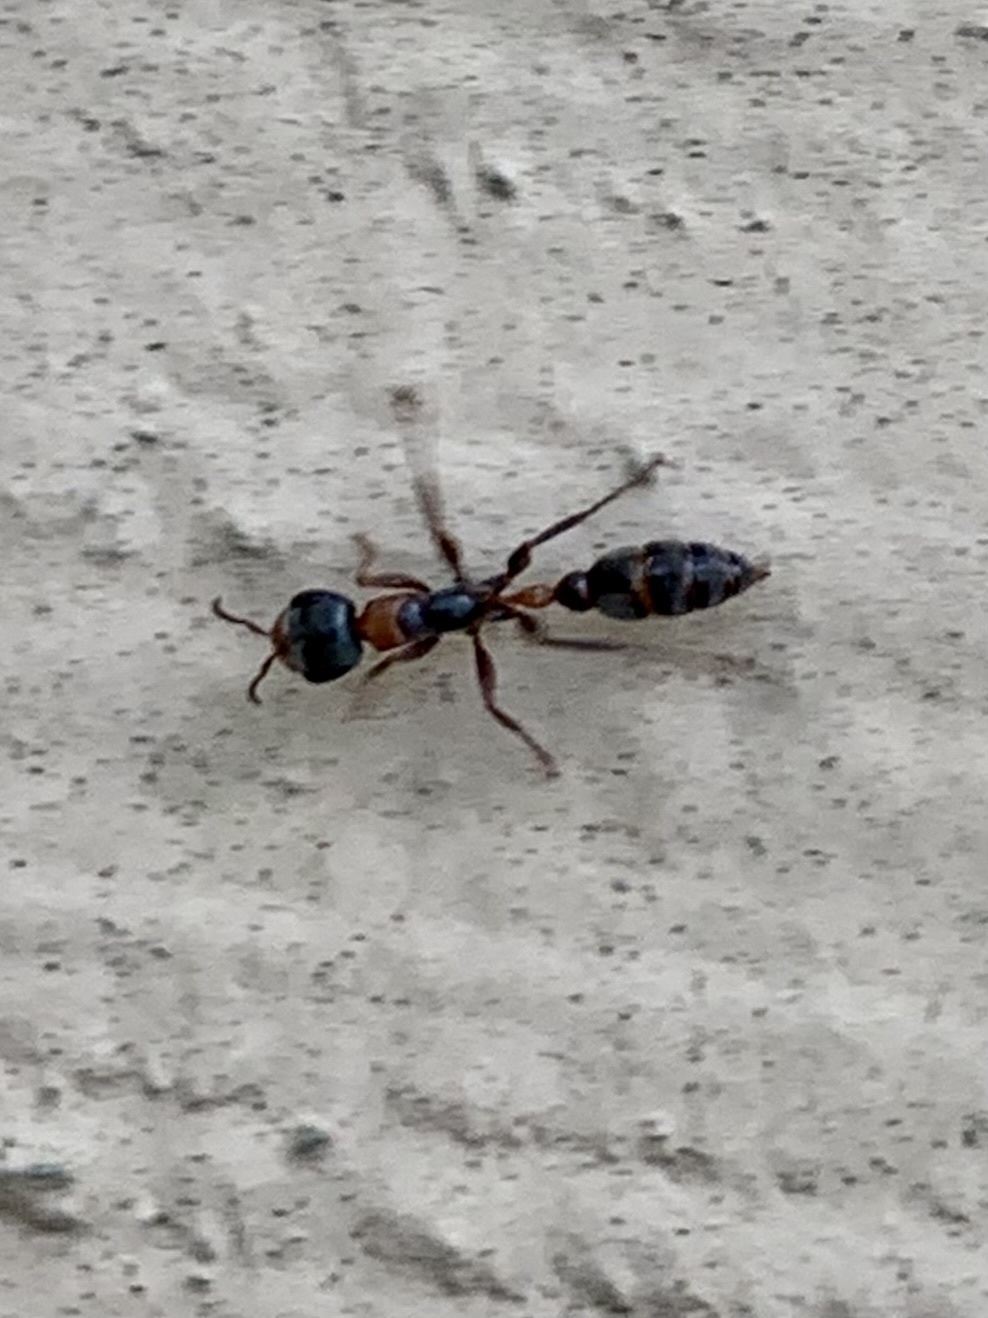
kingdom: Animalia
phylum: Arthropoda
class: Insecta
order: Hymenoptera
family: Formicidae
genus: Pseudomyrmex
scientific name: Pseudomyrmex gracilis
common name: Graceful twig ant
